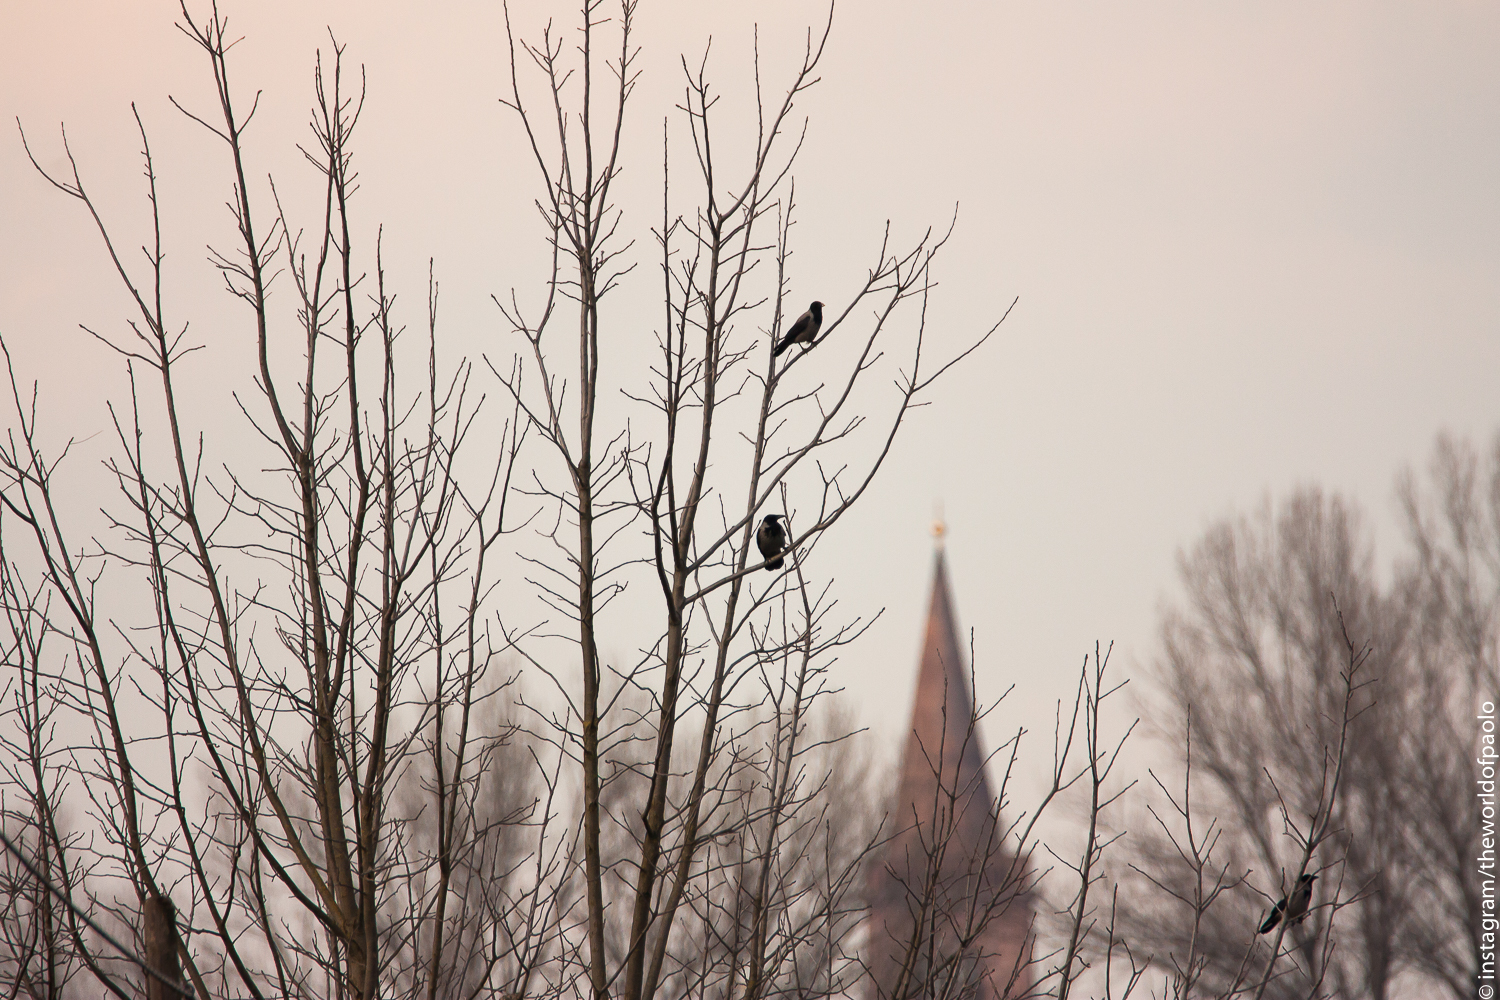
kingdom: Animalia
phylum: Chordata
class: Aves
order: Passeriformes
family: Corvidae
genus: Corvus
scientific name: Corvus cornix
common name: Hooded crow
